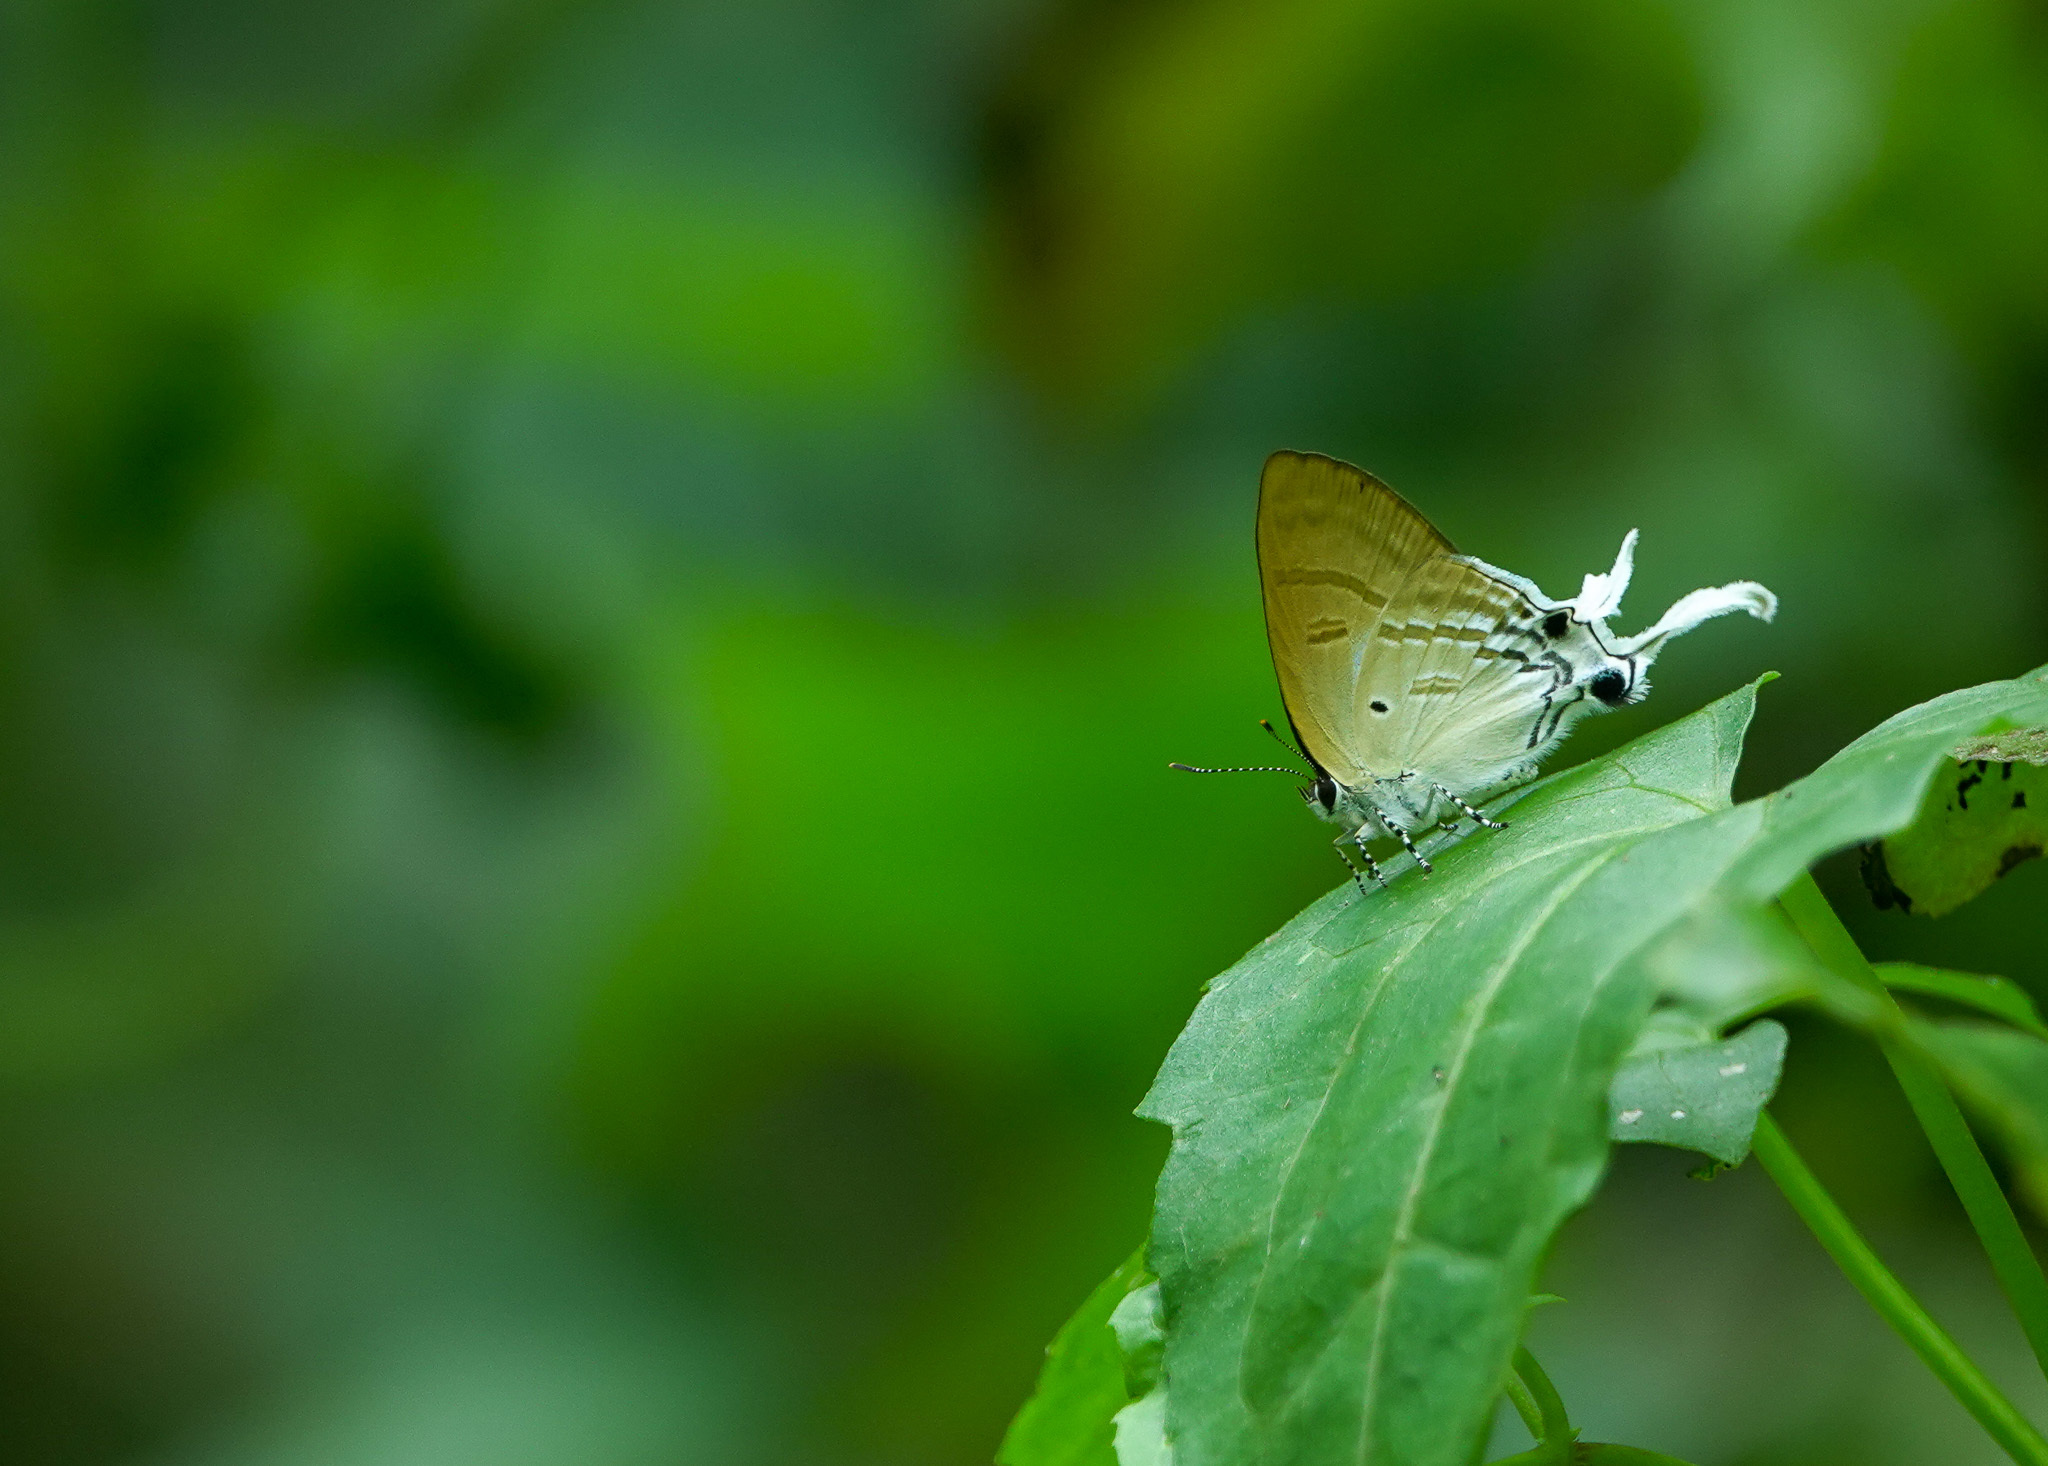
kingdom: Animalia
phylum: Arthropoda
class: Insecta
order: Lepidoptera
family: Lycaenidae
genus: Zeltus
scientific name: Zeltus amasa
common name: Fluffy tit
